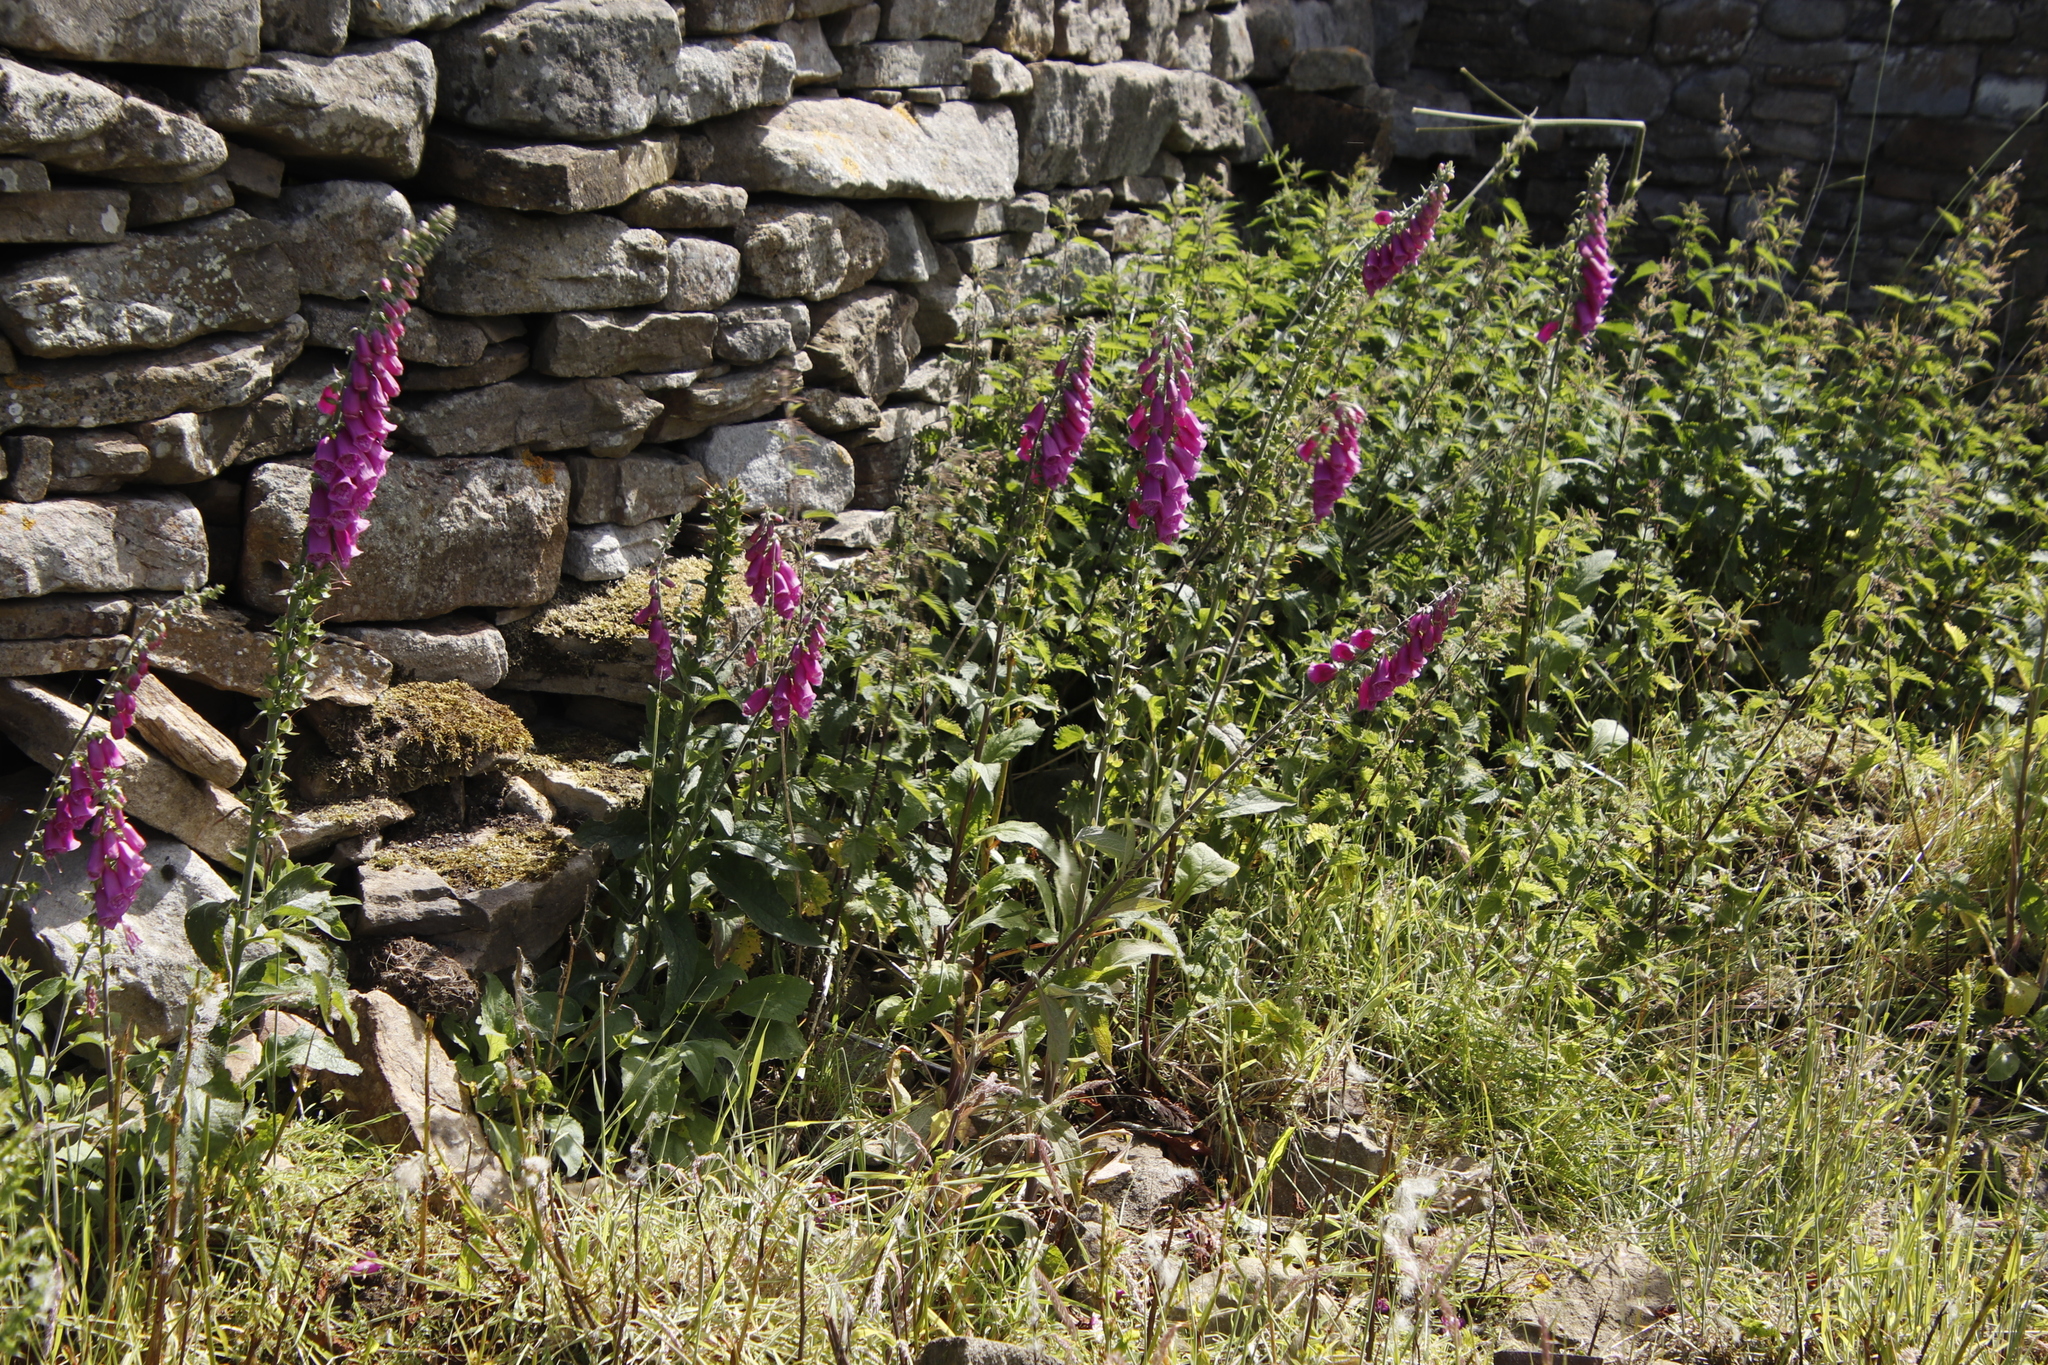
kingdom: Plantae
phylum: Tracheophyta
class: Magnoliopsida
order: Lamiales
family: Plantaginaceae
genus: Digitalis
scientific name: Digitalis purpurea
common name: Foxglove
